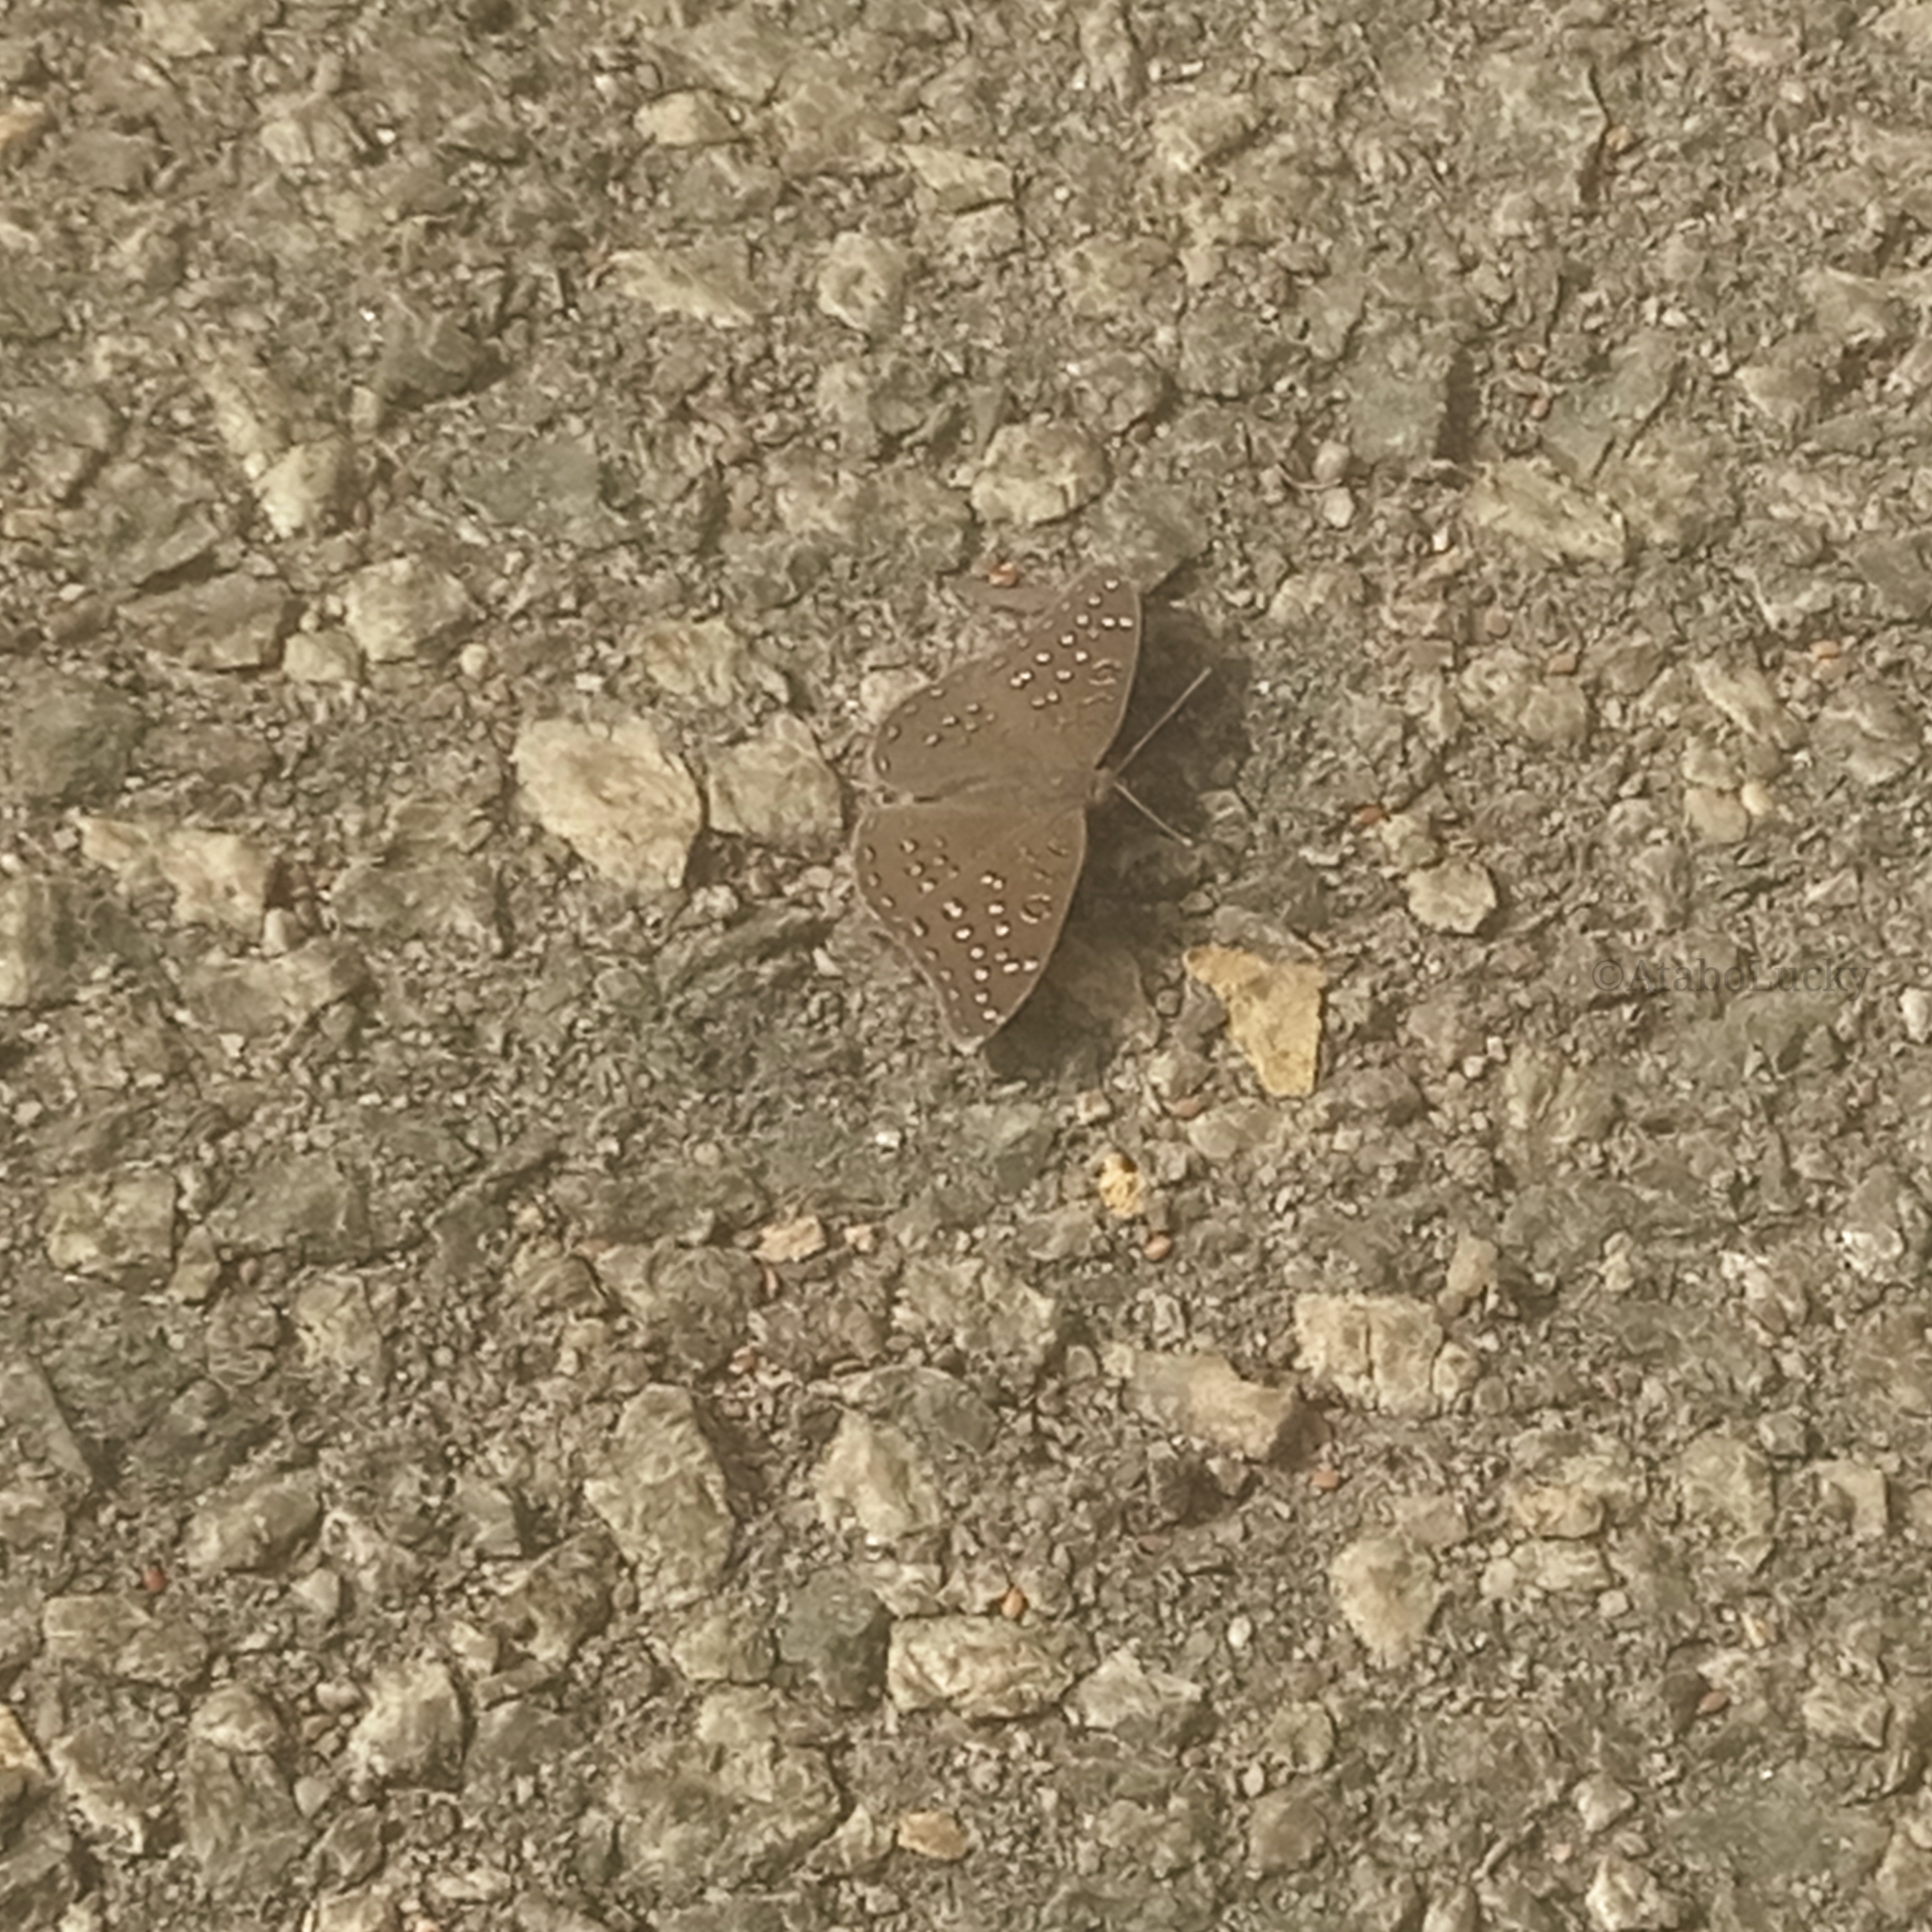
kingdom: Animalia
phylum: Arthropoda
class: Insecta
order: Lepidoptera
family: Nymphalidae
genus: Hamanumida
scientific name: Hamanumida daedalus
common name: Guinea-fowl butterfly
